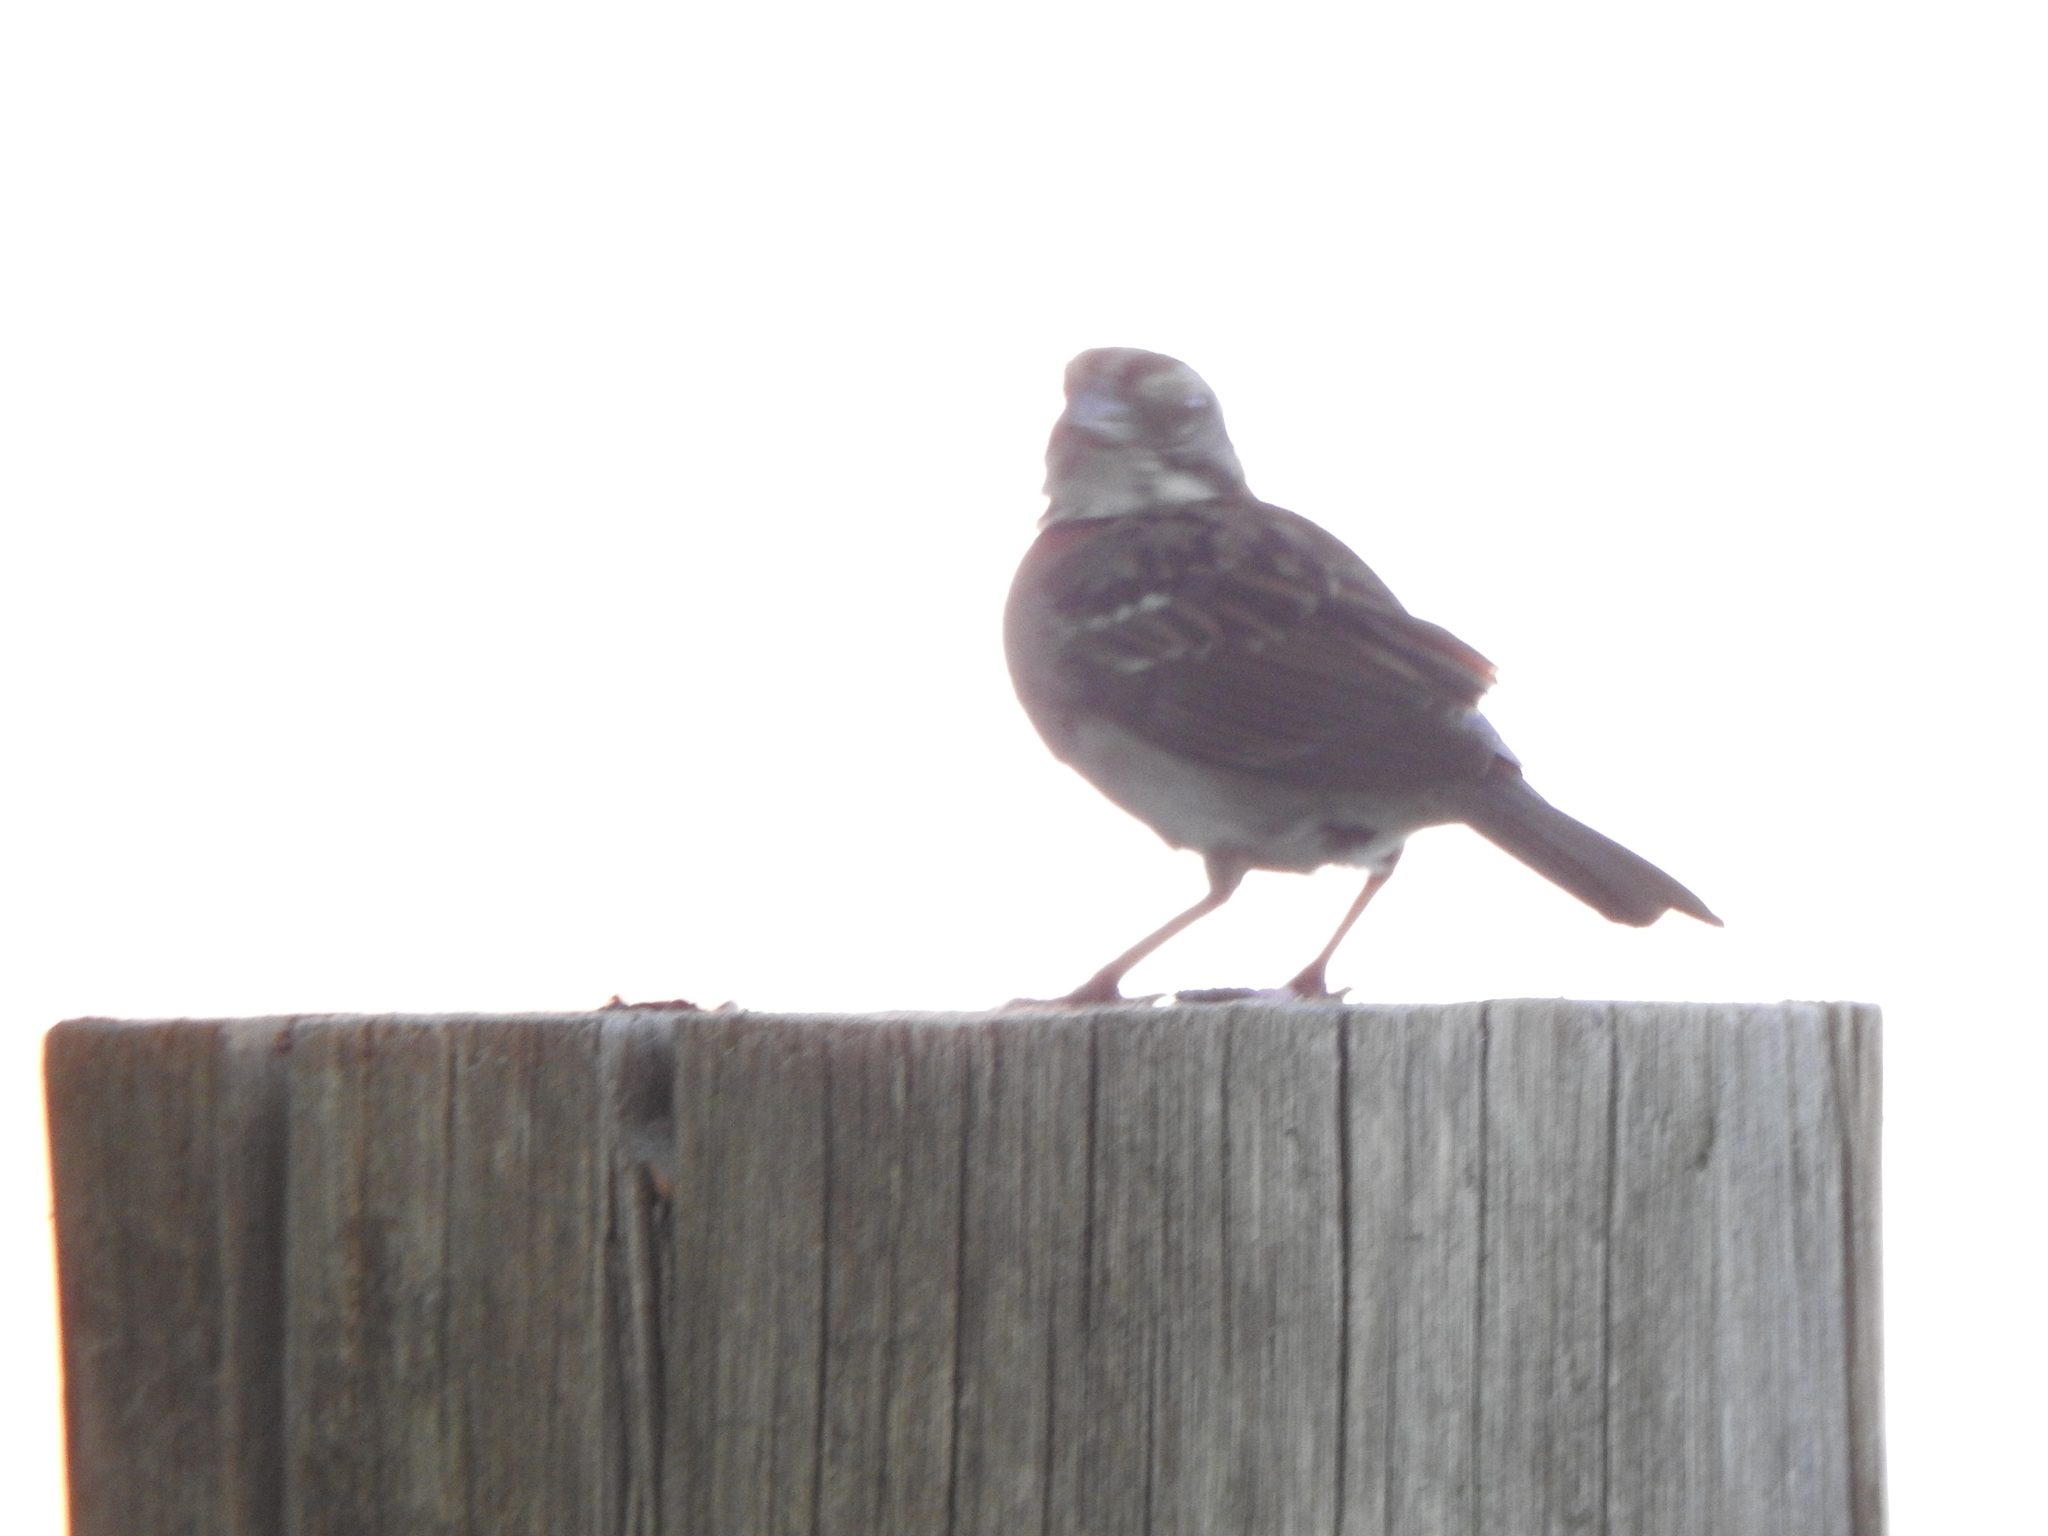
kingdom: Animalia
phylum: Chordata
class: Aves
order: Passeriformes
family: Passerellidae
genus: Zonotrichia
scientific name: Zonotrichia capensis
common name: Rufous-collared sparrow
